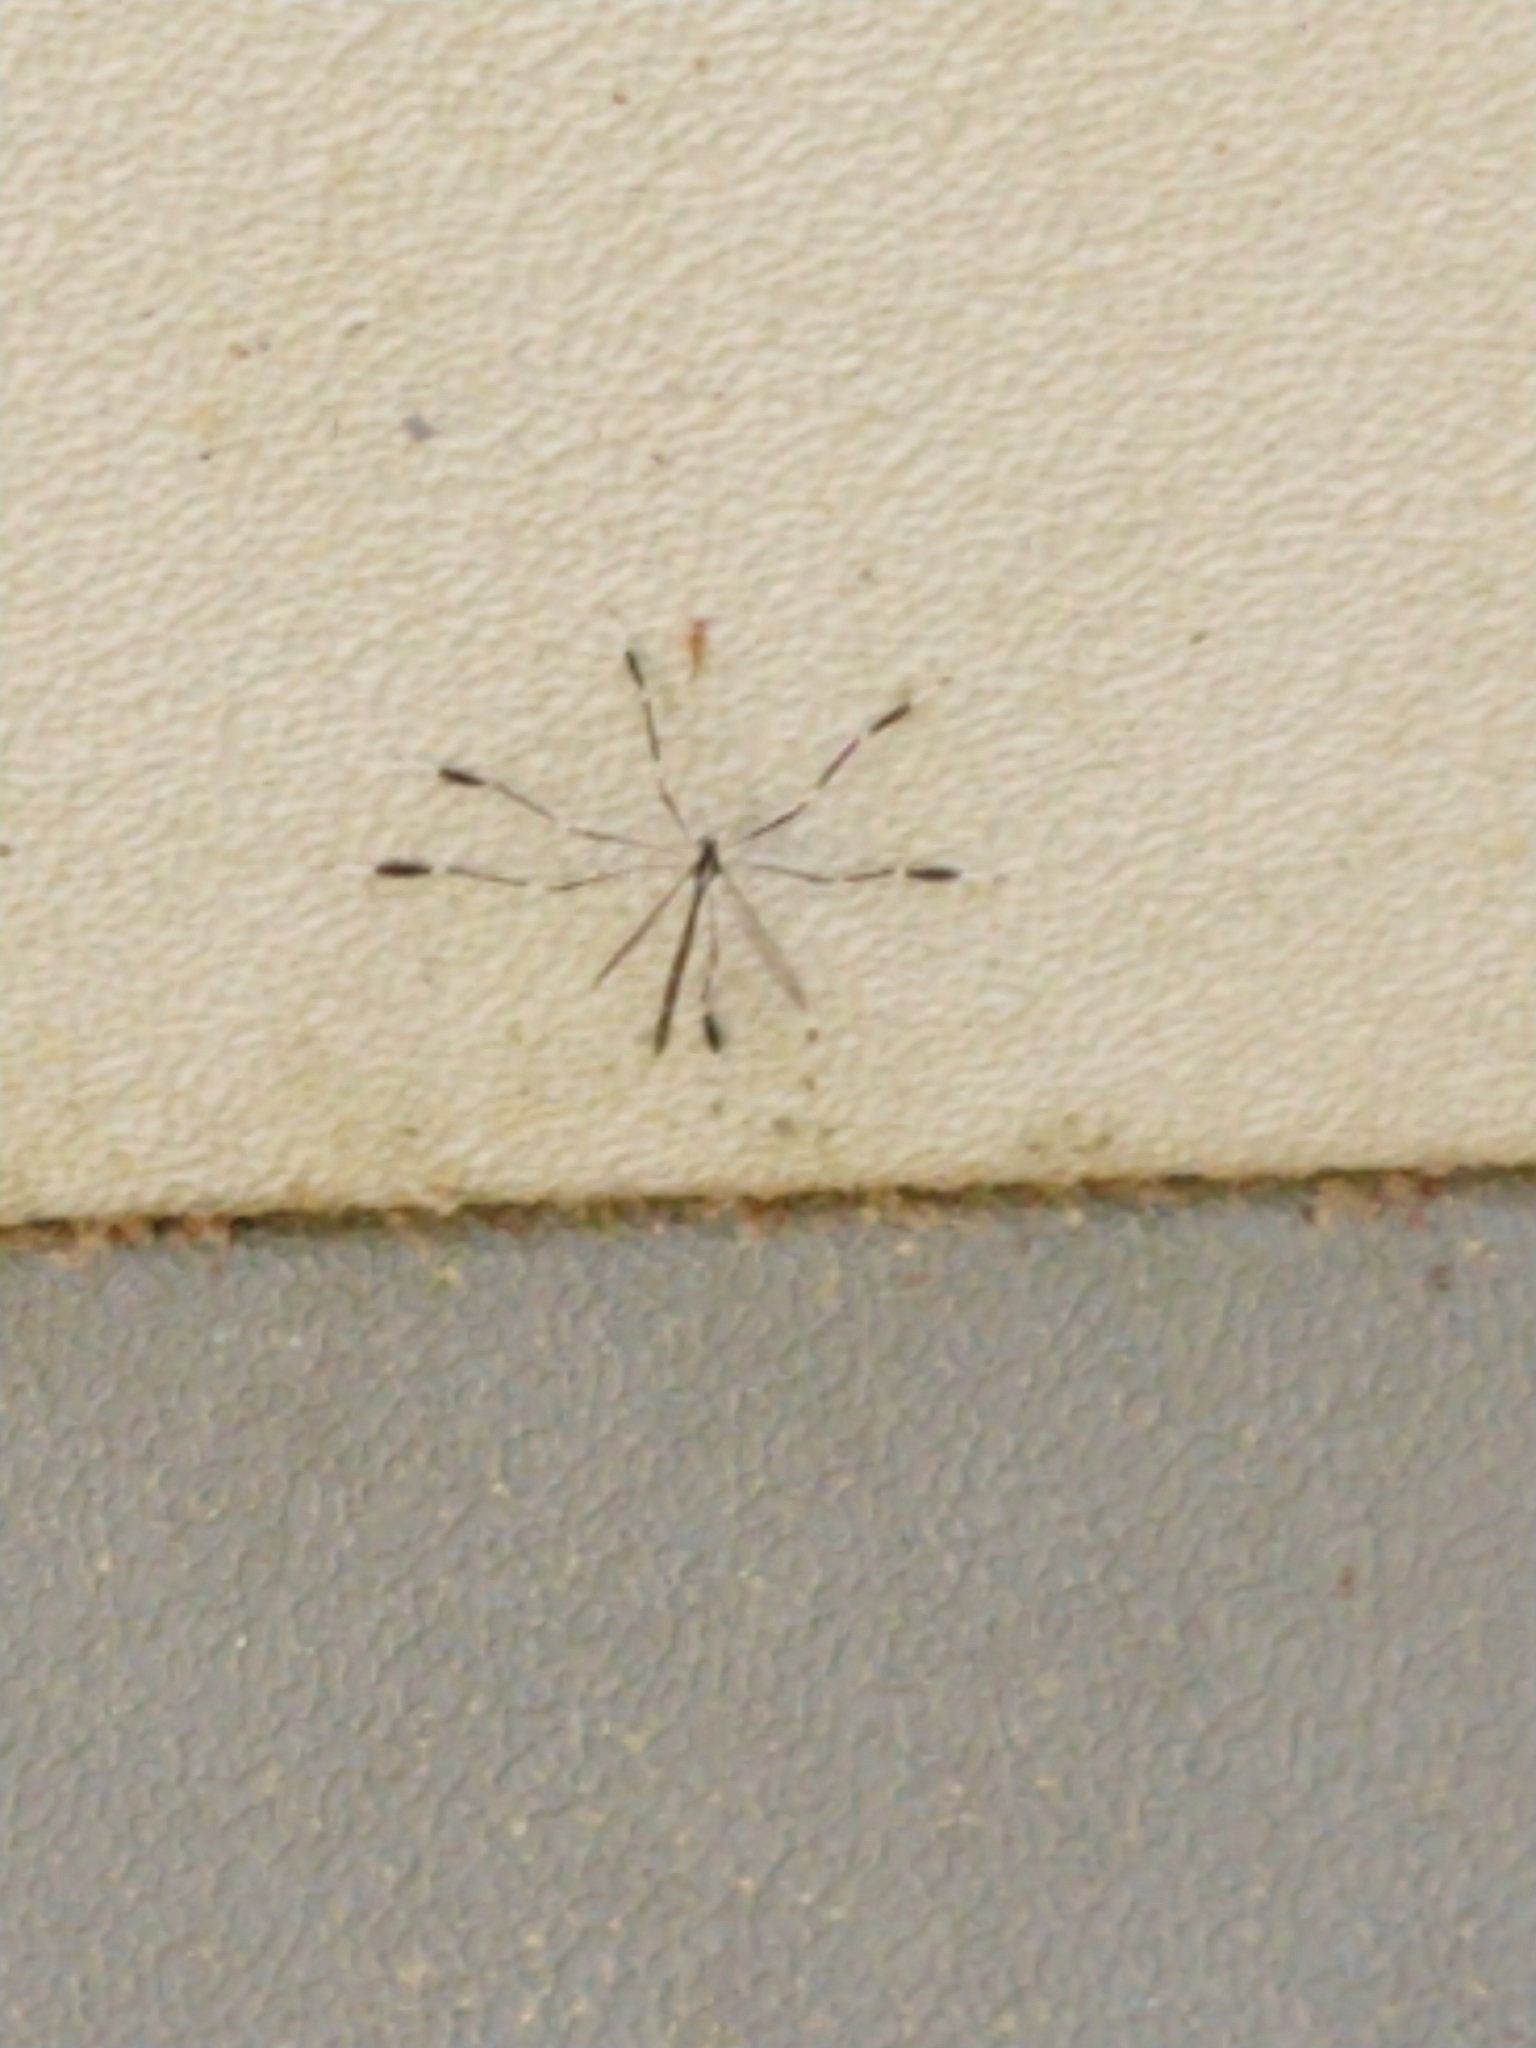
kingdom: Animalia
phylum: Arthropoda
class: Insecta
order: Diptera
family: Ptychopteridae
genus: Bittacomorpha
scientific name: Bittacomorpha clavipes
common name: Eastern phantom crane fly
